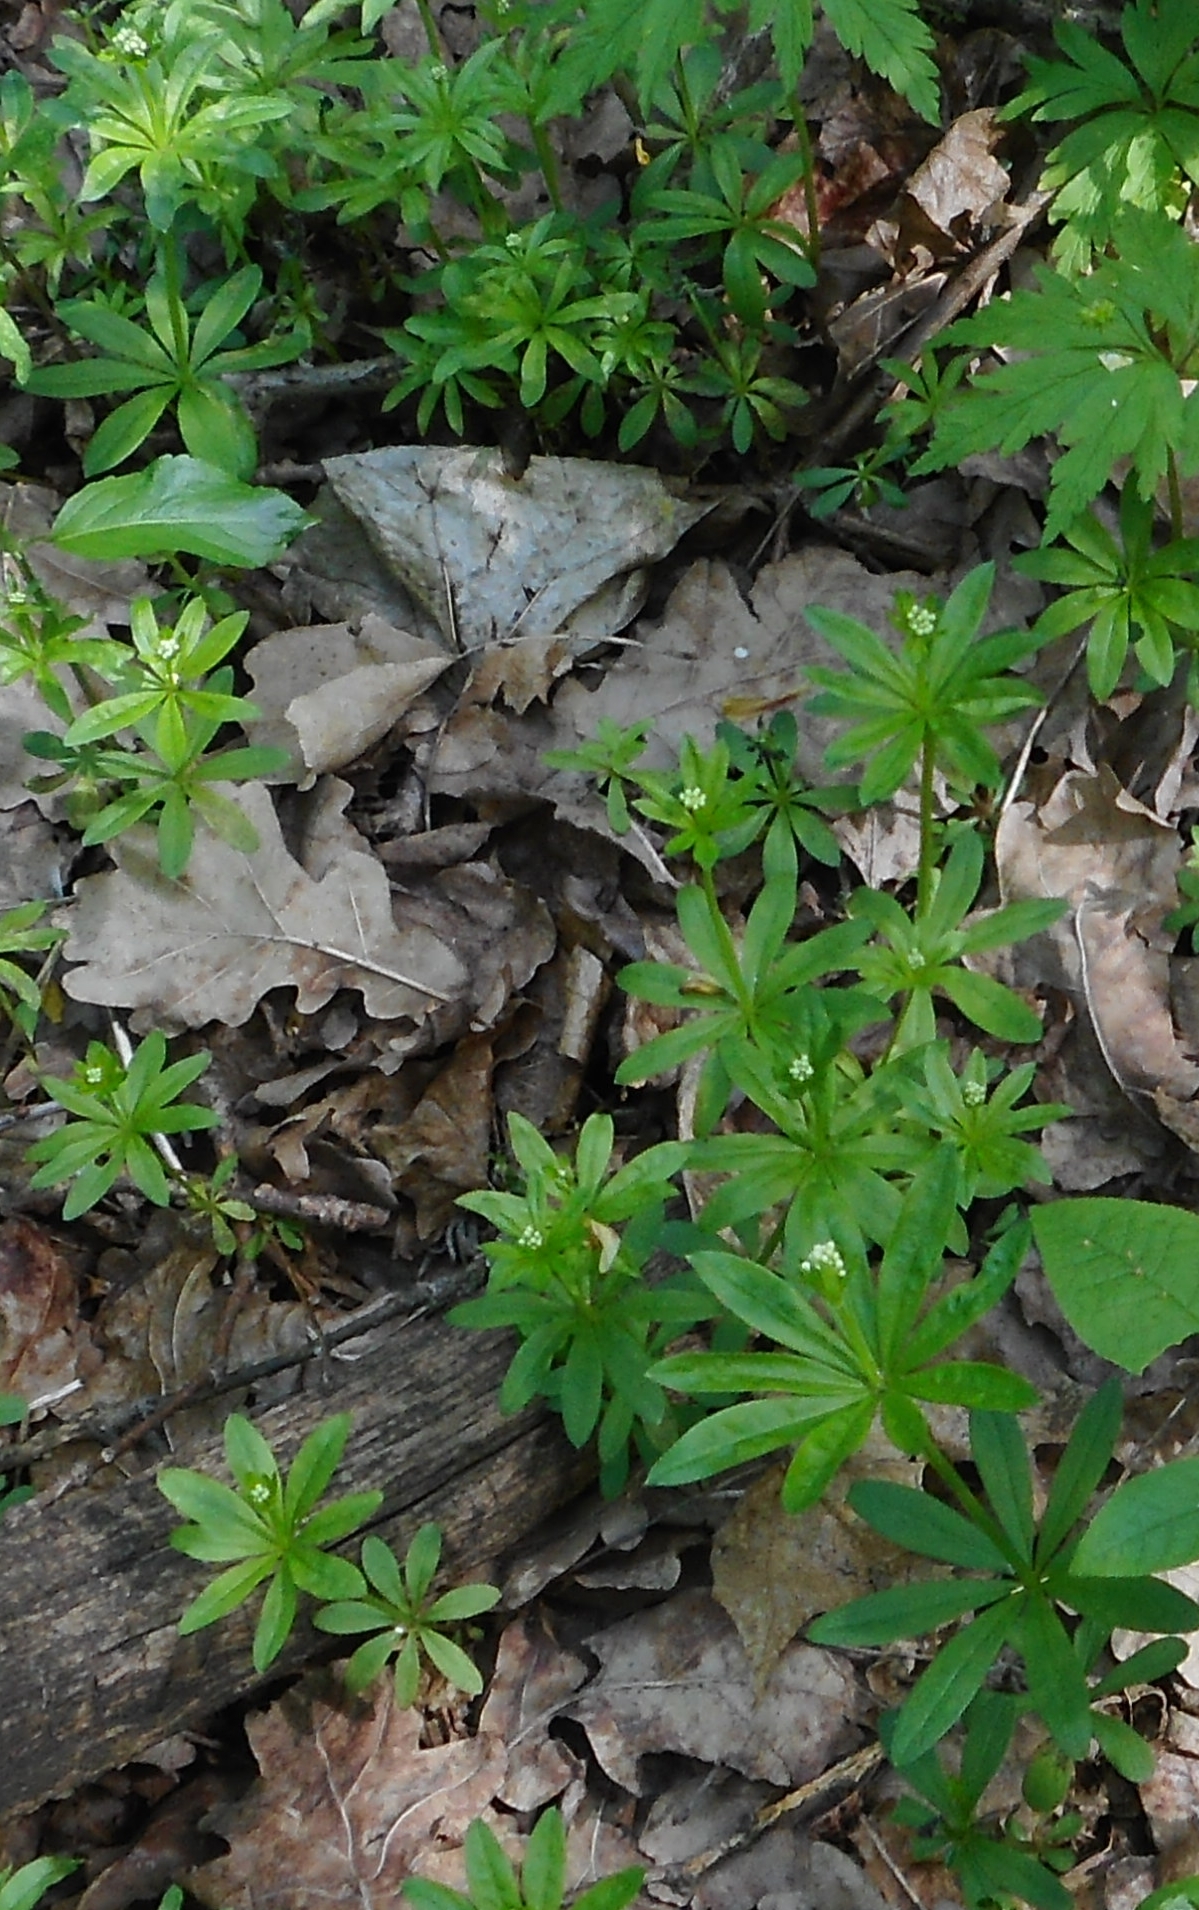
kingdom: Plantae
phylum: Tracheophyta
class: Magnoliopsida
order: Gentianales
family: Rubiaceae
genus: Galium
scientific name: Galium odoratum
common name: Sweet woodruff
